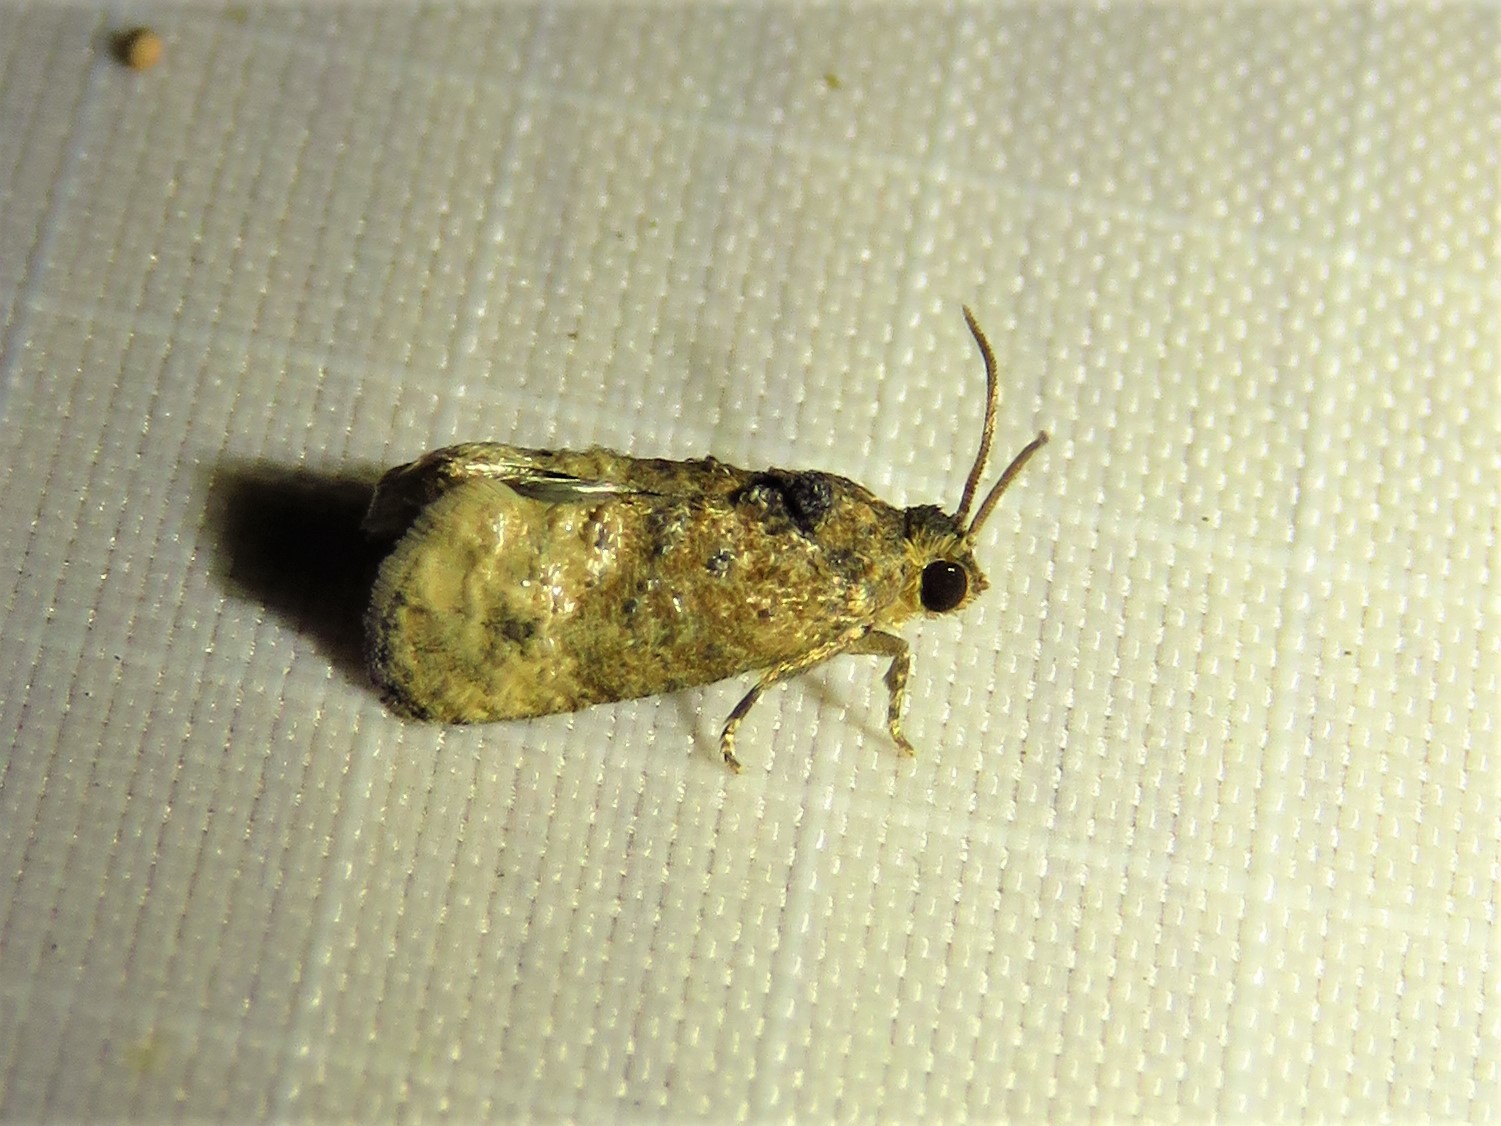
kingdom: Animalia
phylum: Arthropoda
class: Insecta
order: Lepidoptera
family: Tortricidae
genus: Ecdytolopha
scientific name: Ecdytolopha mana
